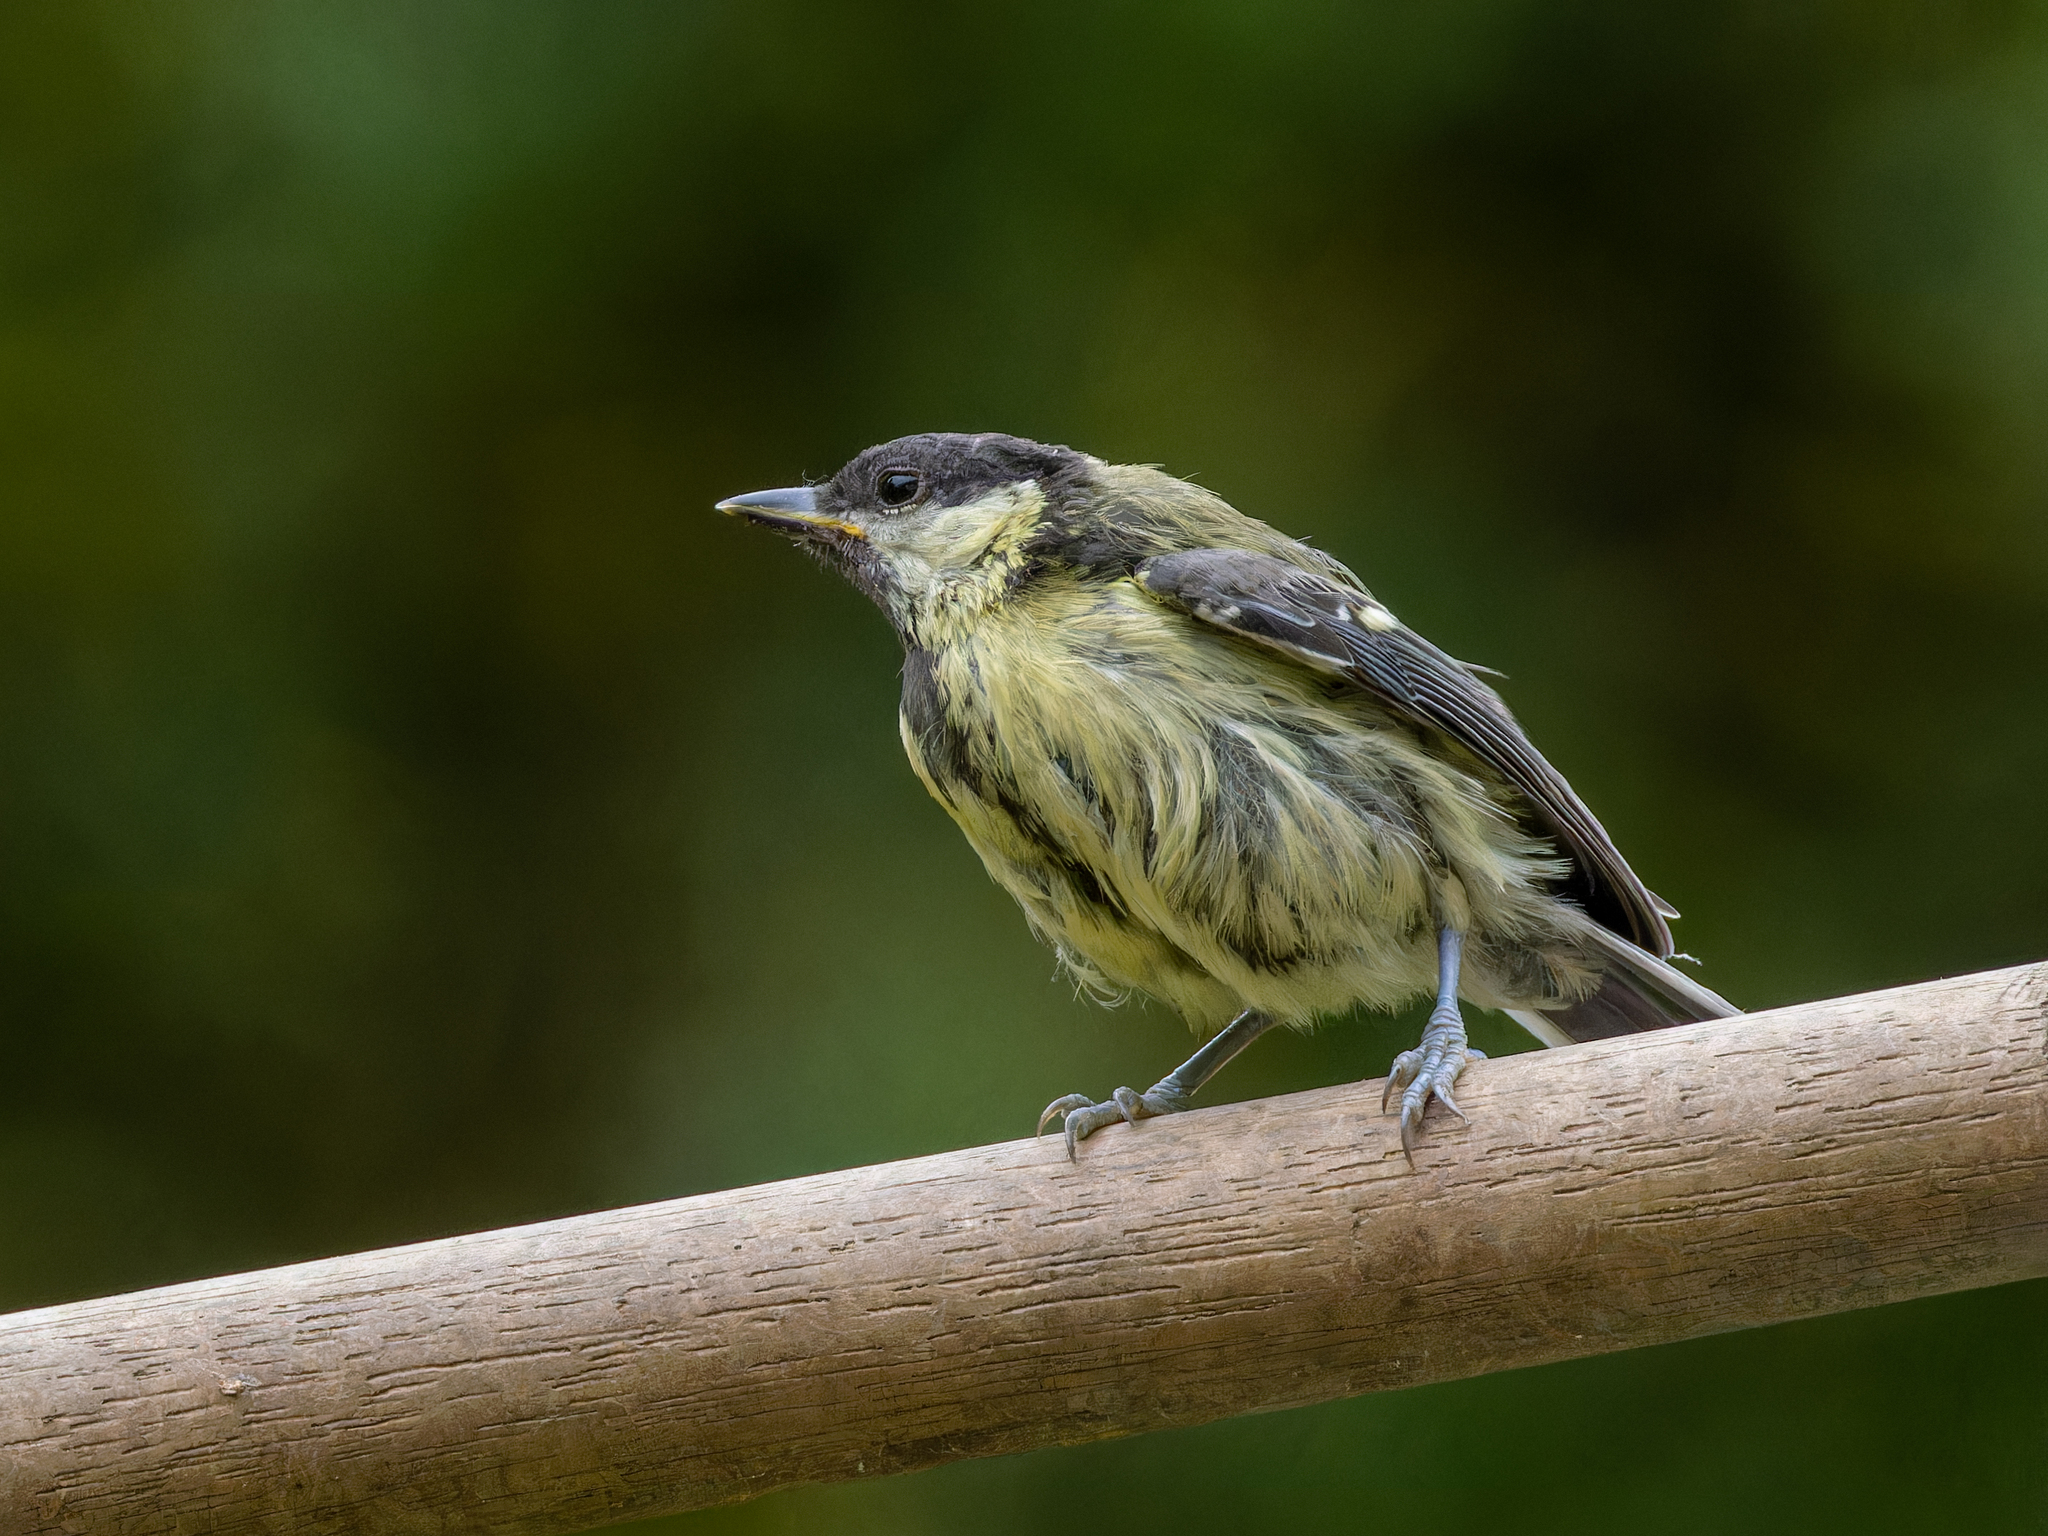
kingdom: Animalia
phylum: Chordata
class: Aves
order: Passeriformes
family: Paridae
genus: Parus
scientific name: Parus major
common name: Great tit
